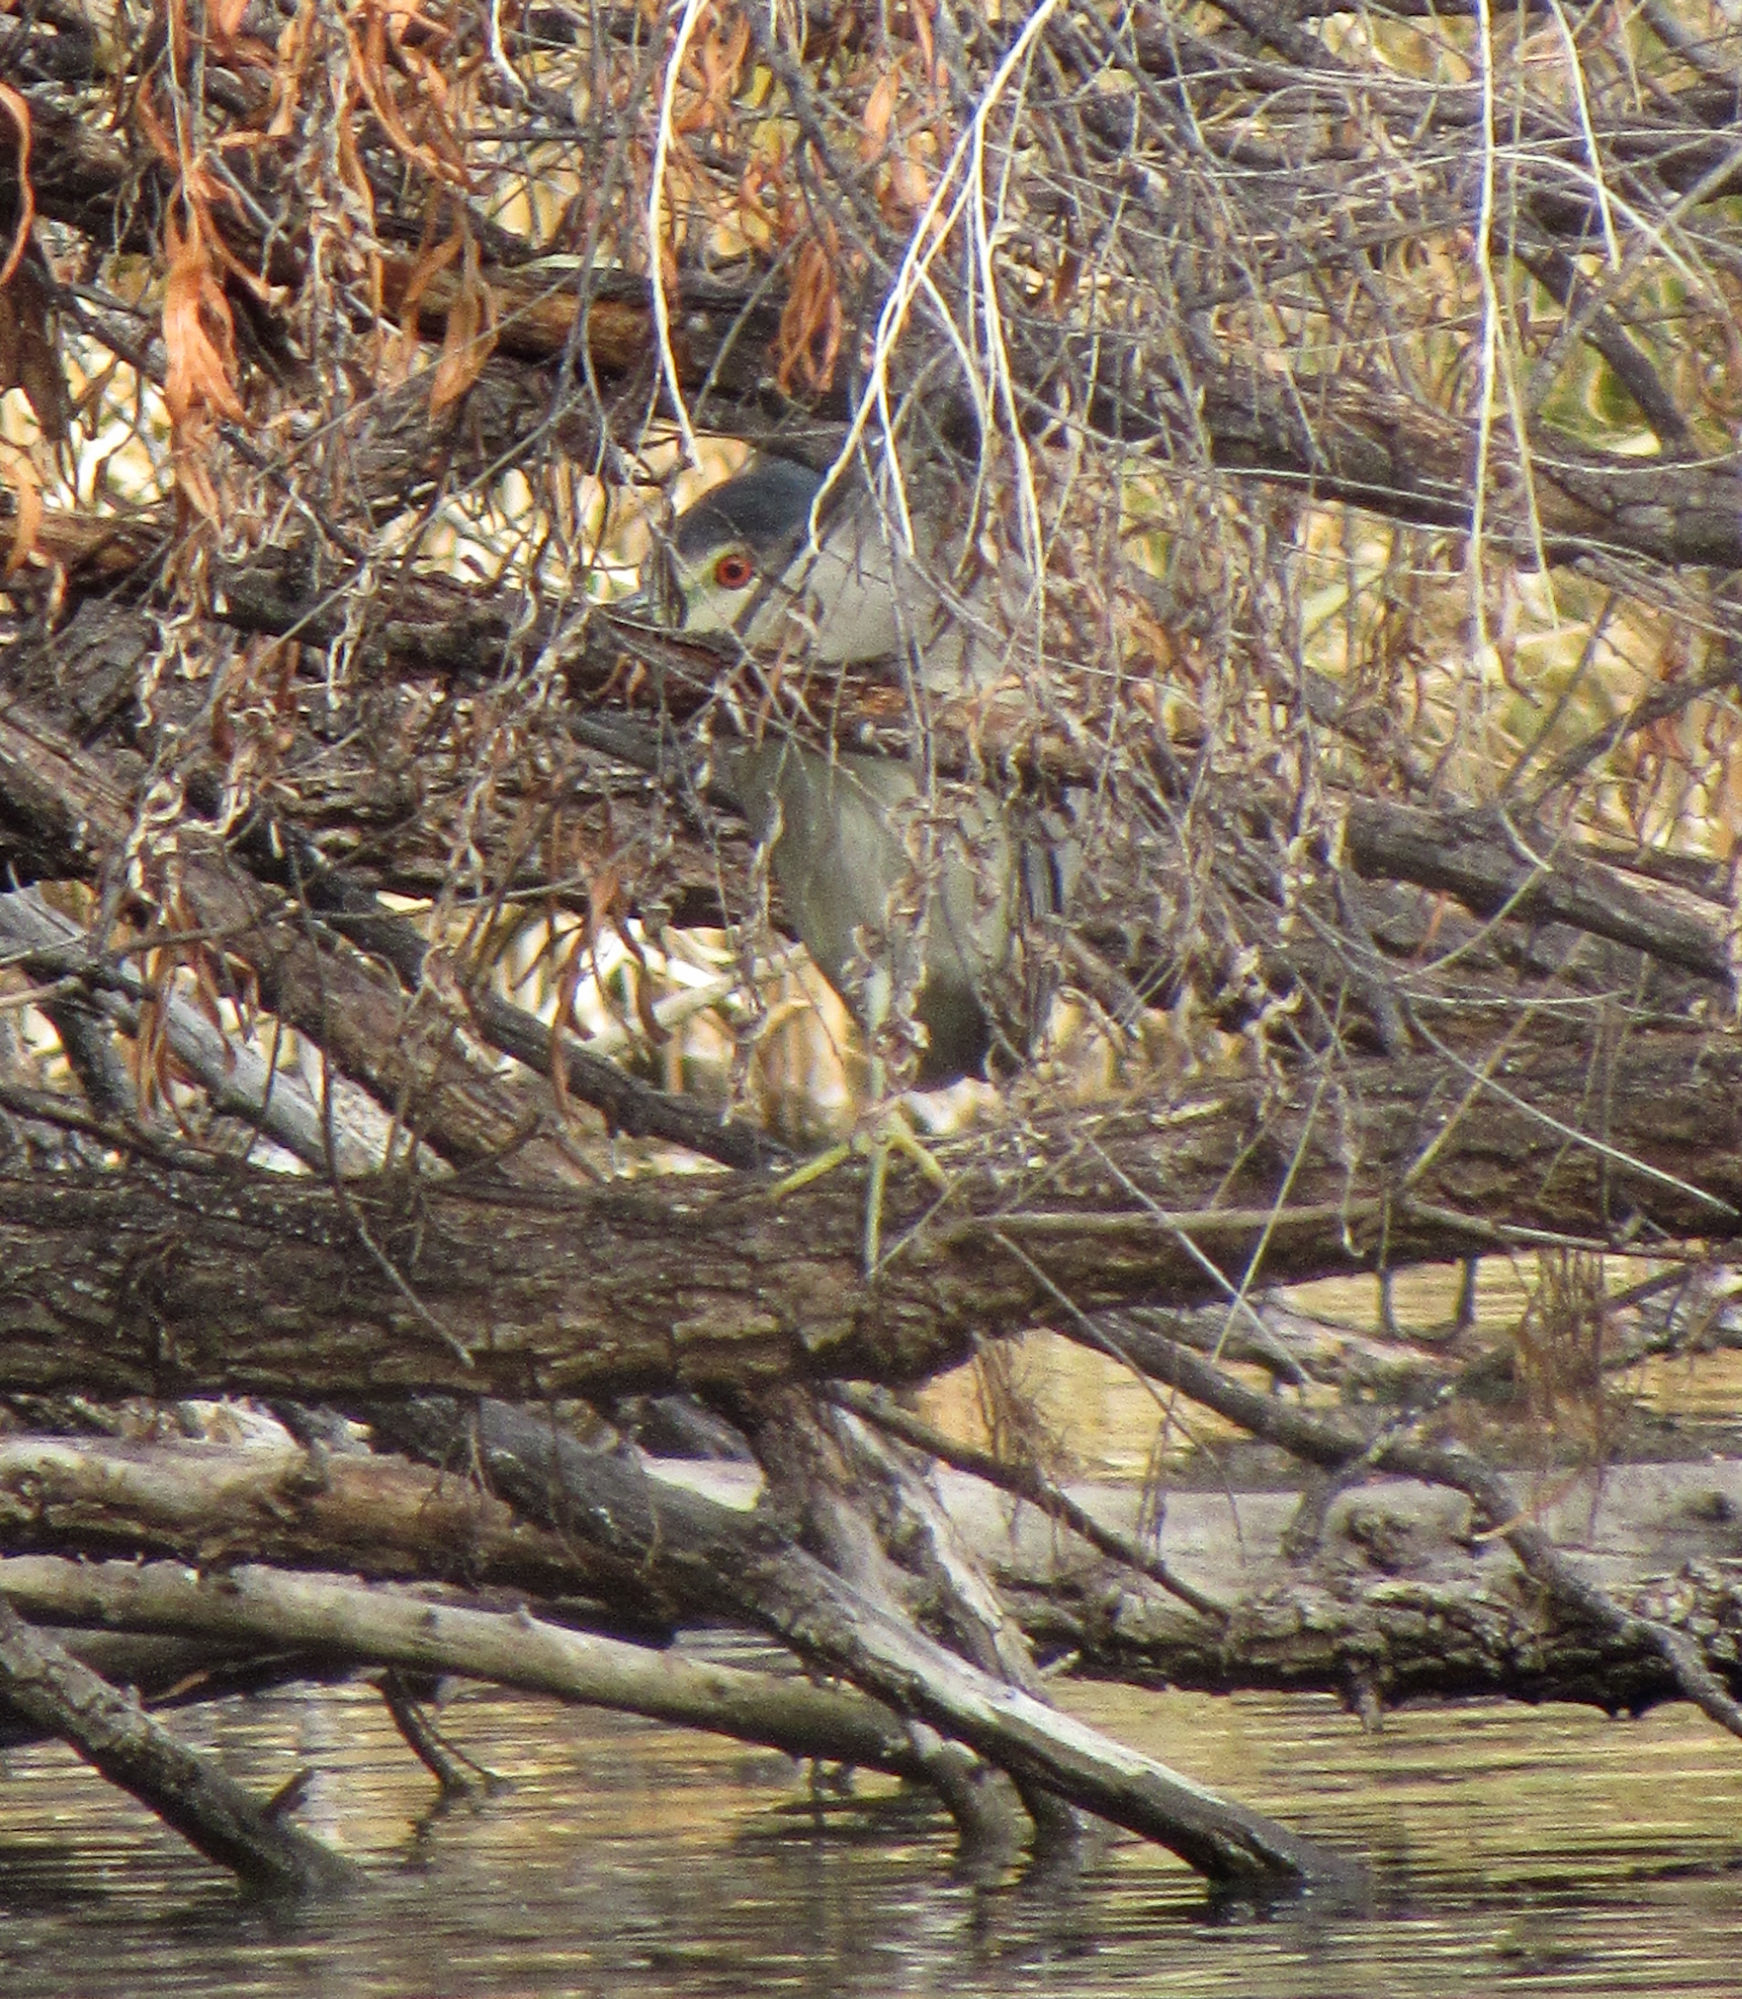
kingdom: Animalia
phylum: Chordata
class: Aves
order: Pelecaniformes
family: Ardeidae
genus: Nycticorax
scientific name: Nycticorax nycticorax
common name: Black-crowned night heron
